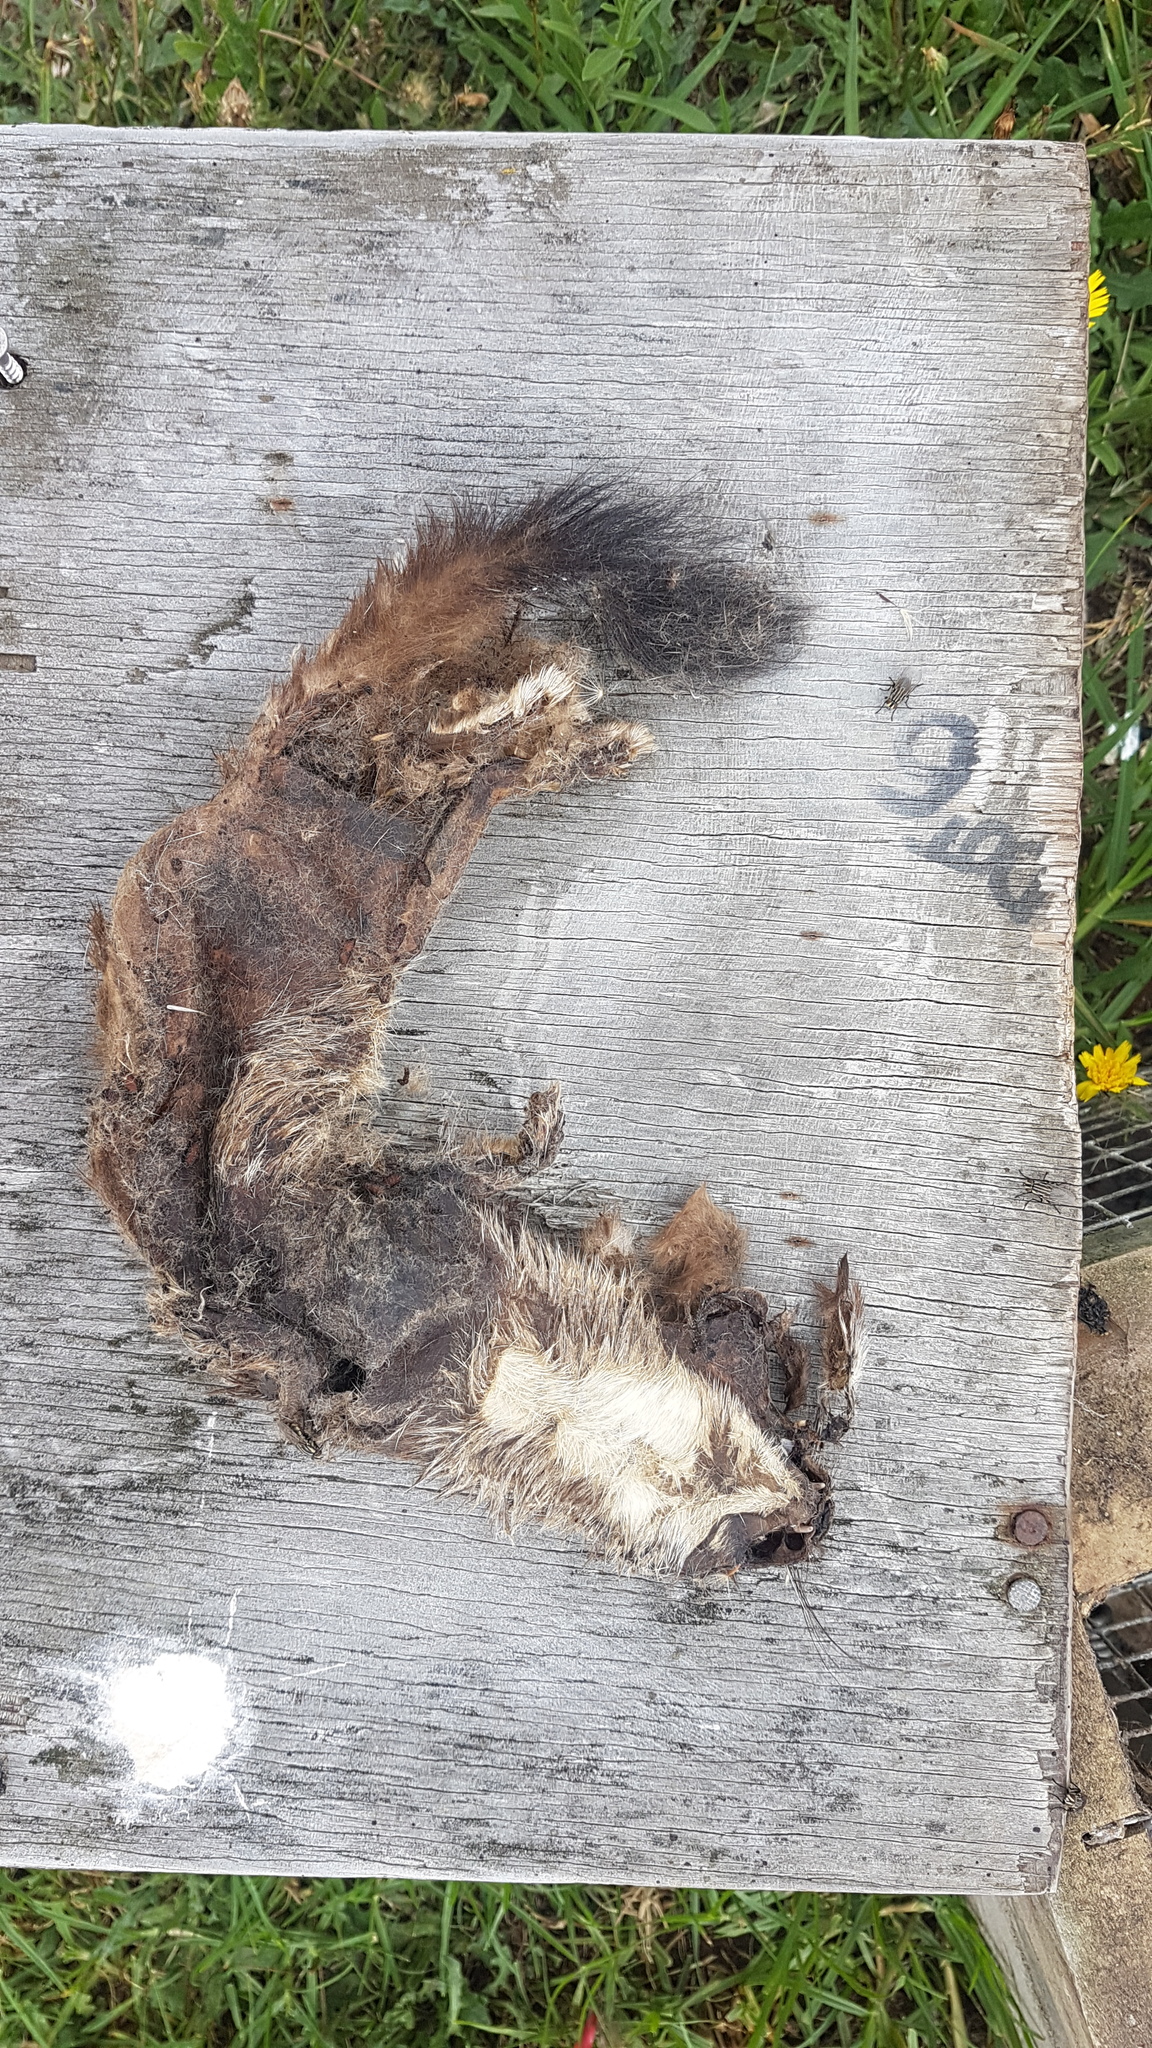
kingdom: Animalia
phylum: Chordata
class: Mammalia
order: Carnivora
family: Mustelidae
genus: Mustela
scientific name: Mustela erminea
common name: Stoat
